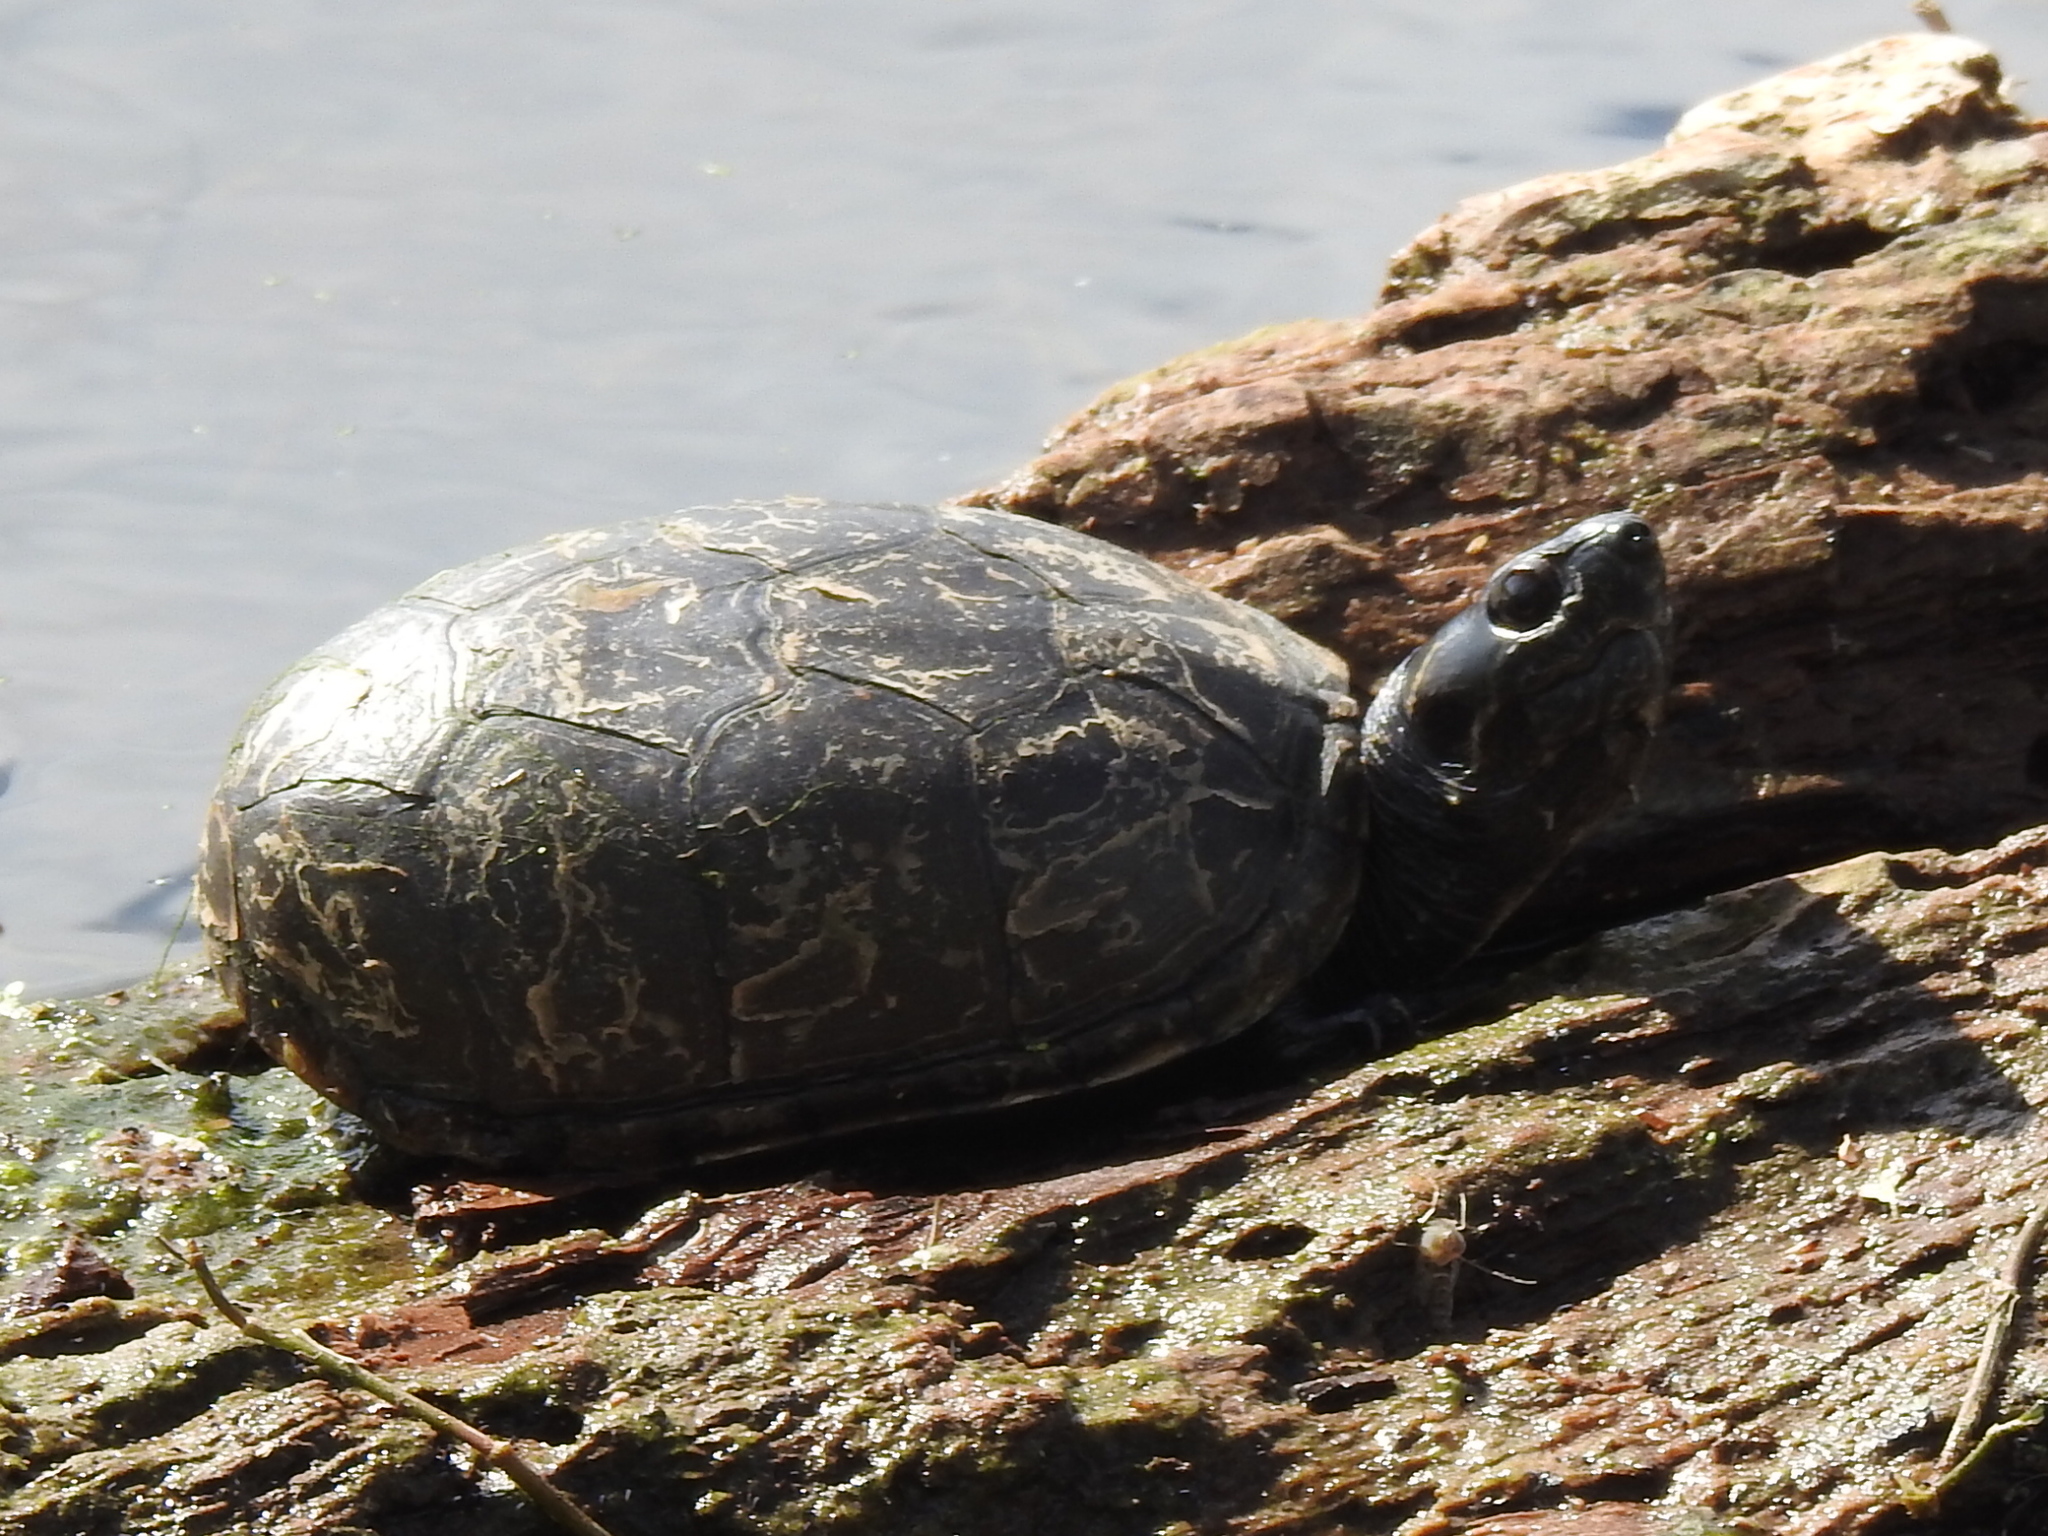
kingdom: Animalia
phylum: Chordata
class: Testudines
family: Kinosternidae
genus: Kinosternon
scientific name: Kinosternon subrubrum
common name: Eastern mud turtle
